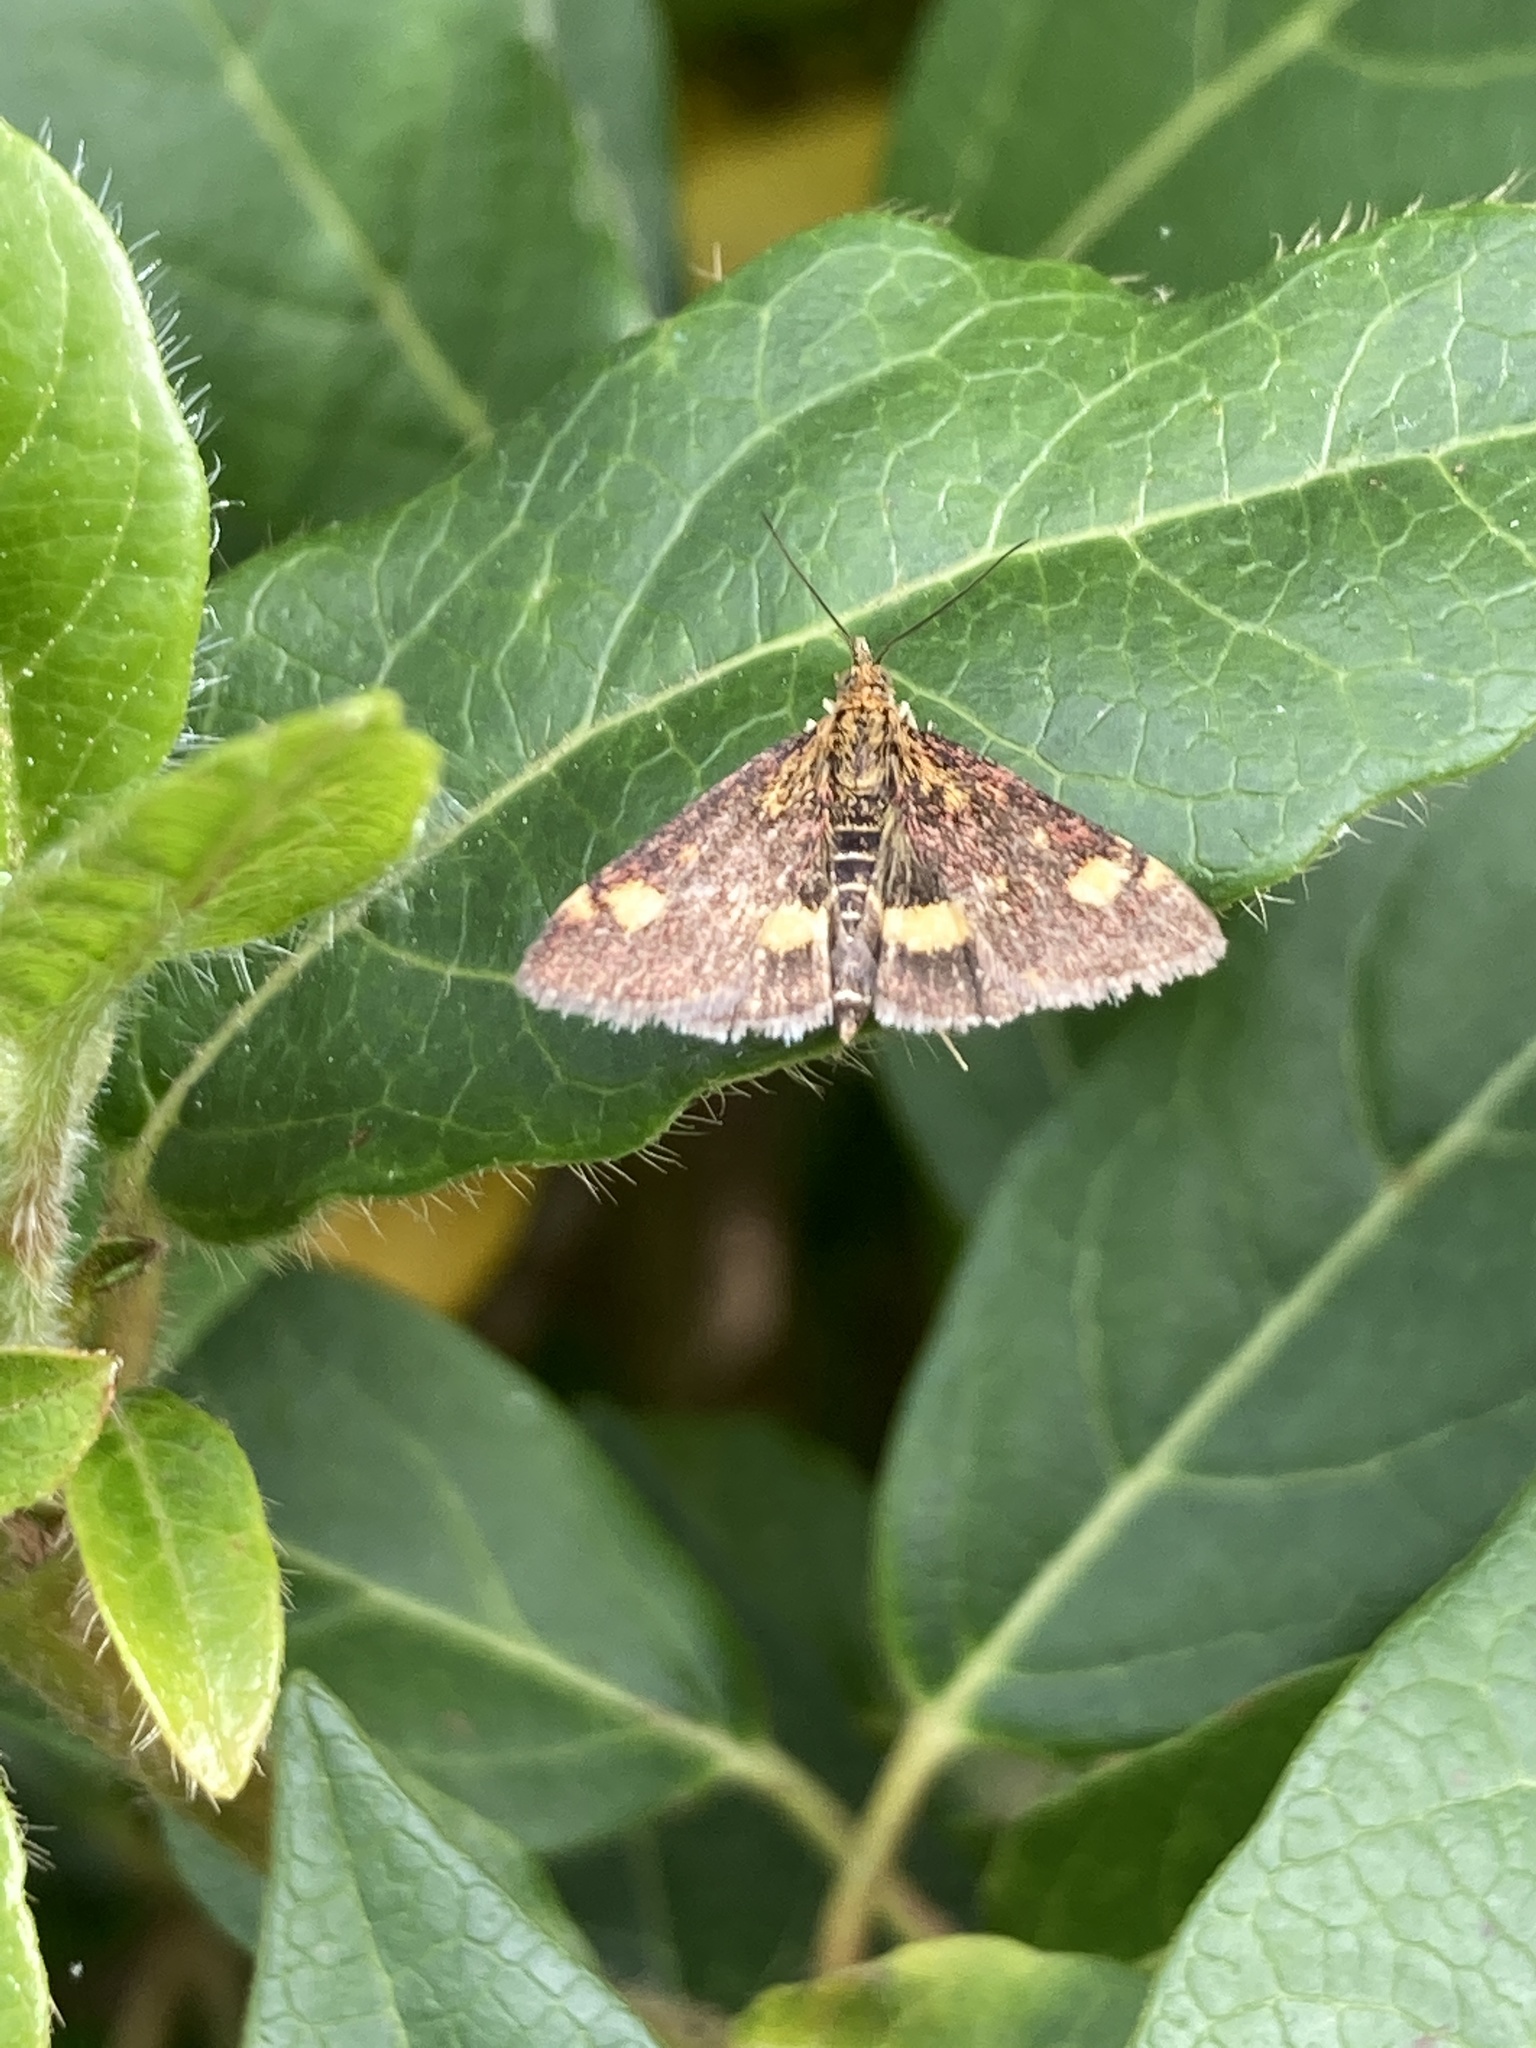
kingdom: Animalia
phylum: Arthropoda
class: Insecta
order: Lepidoptera
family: Crambidae
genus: Pyrausta
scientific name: Pyrausta aurata
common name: Small purple & gold
